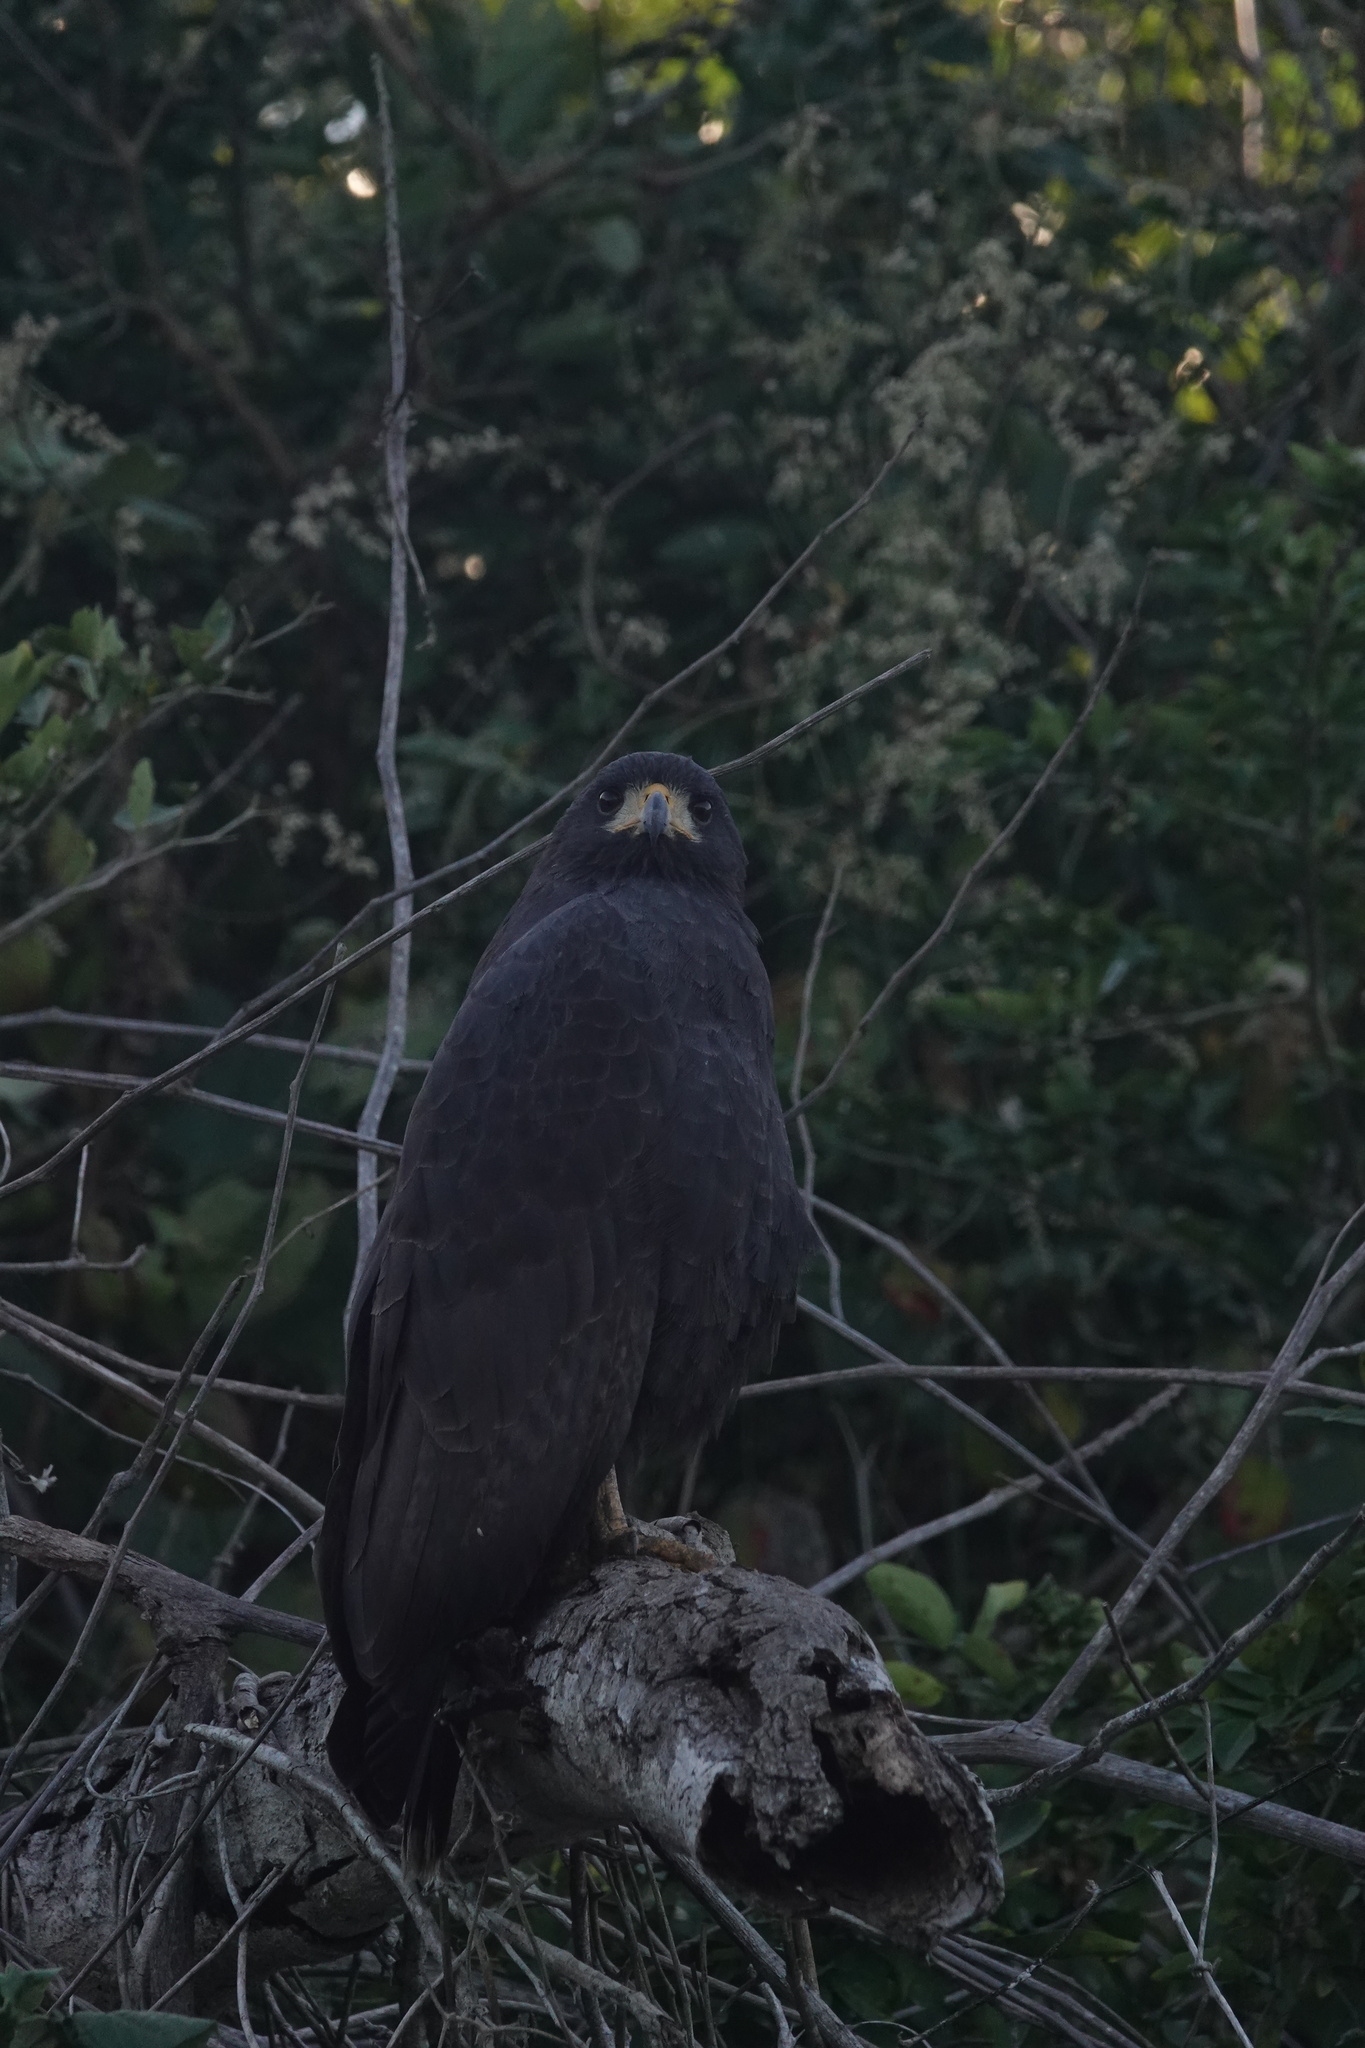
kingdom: Animalia
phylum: Chordata
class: Aves
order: Accipitriformes
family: Accipitridae
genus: Buteogallus
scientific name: Buteogallus anthracinus
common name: Common black hawk
